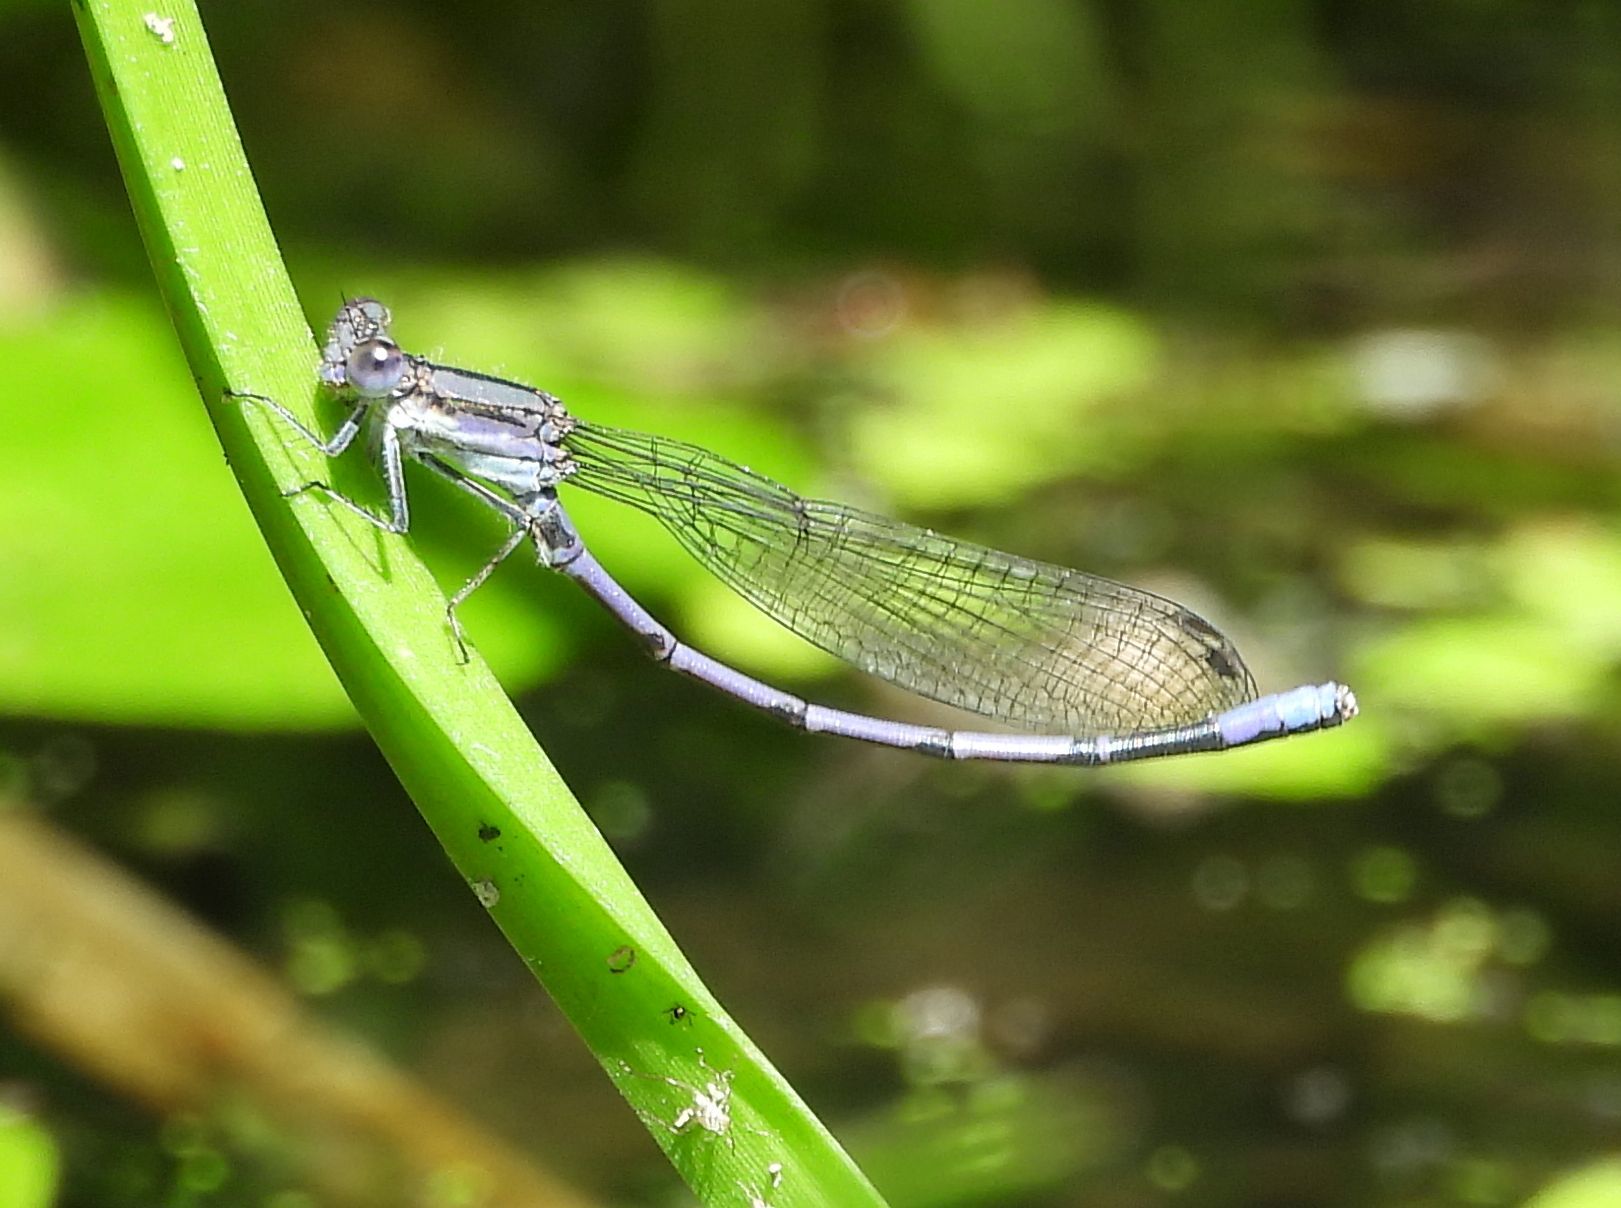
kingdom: Animalia
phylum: Arthropoda
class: Insecta
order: Odonata
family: Coenagrionidae
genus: Argia
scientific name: Argia fumipennis
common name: Variable dancer
